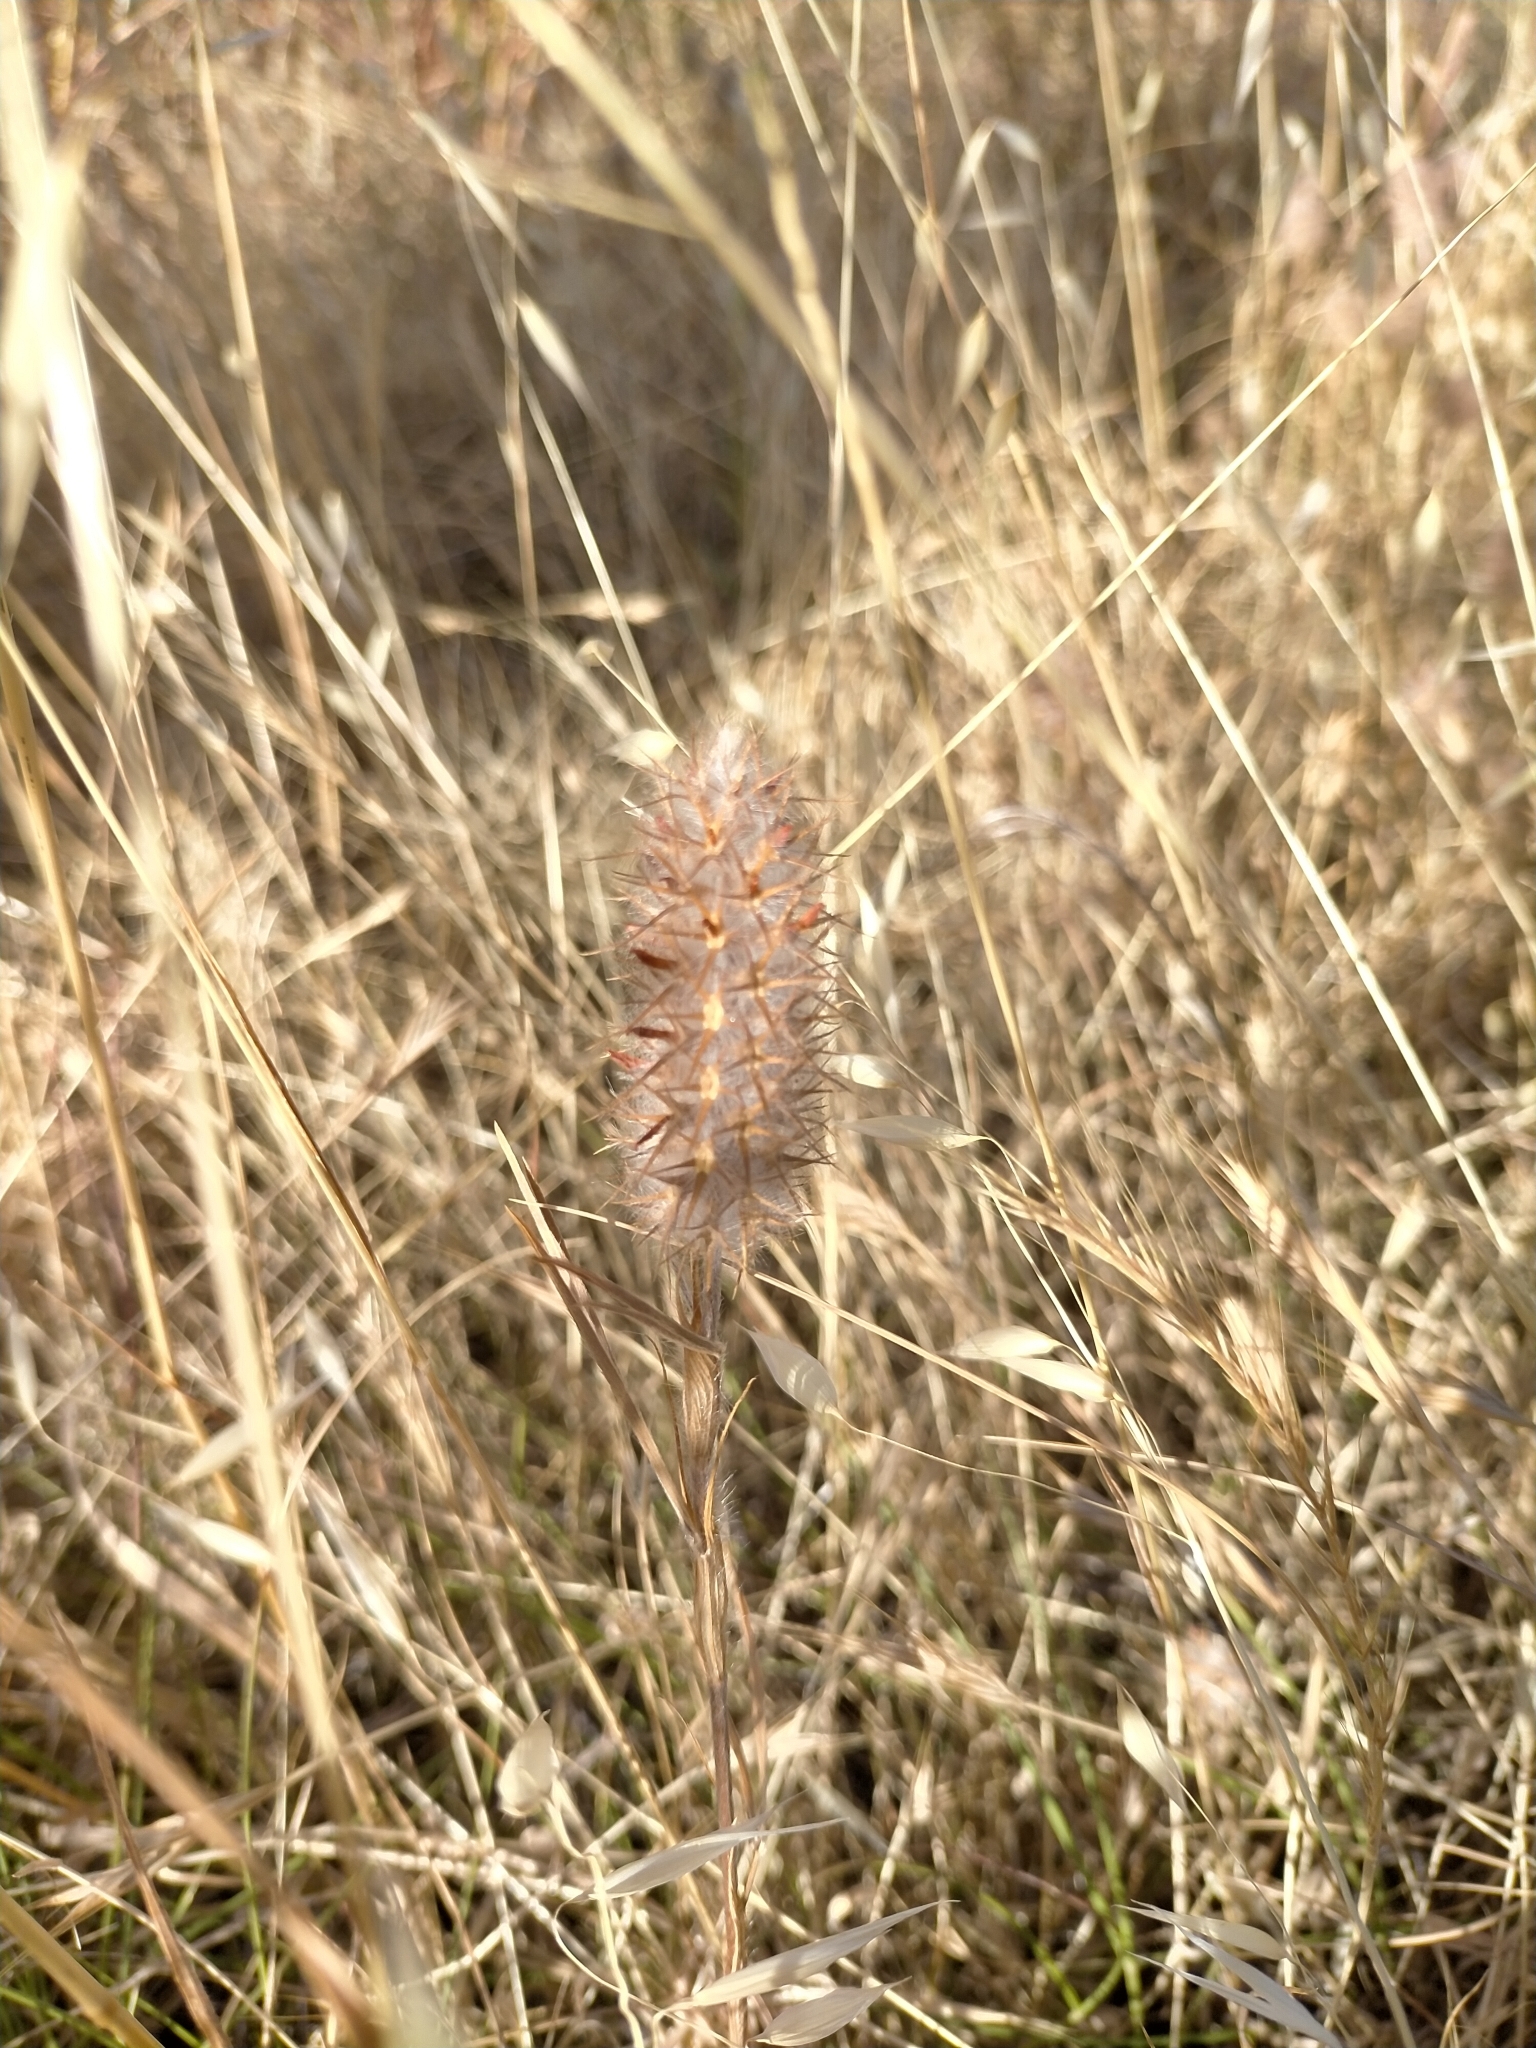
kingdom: Plantae
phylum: Tracheophyta
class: Magnoliopsida
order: Fabales
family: Fabaceae
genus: Trifolium
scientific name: Trifolium angustifolium
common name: Narrow clover
